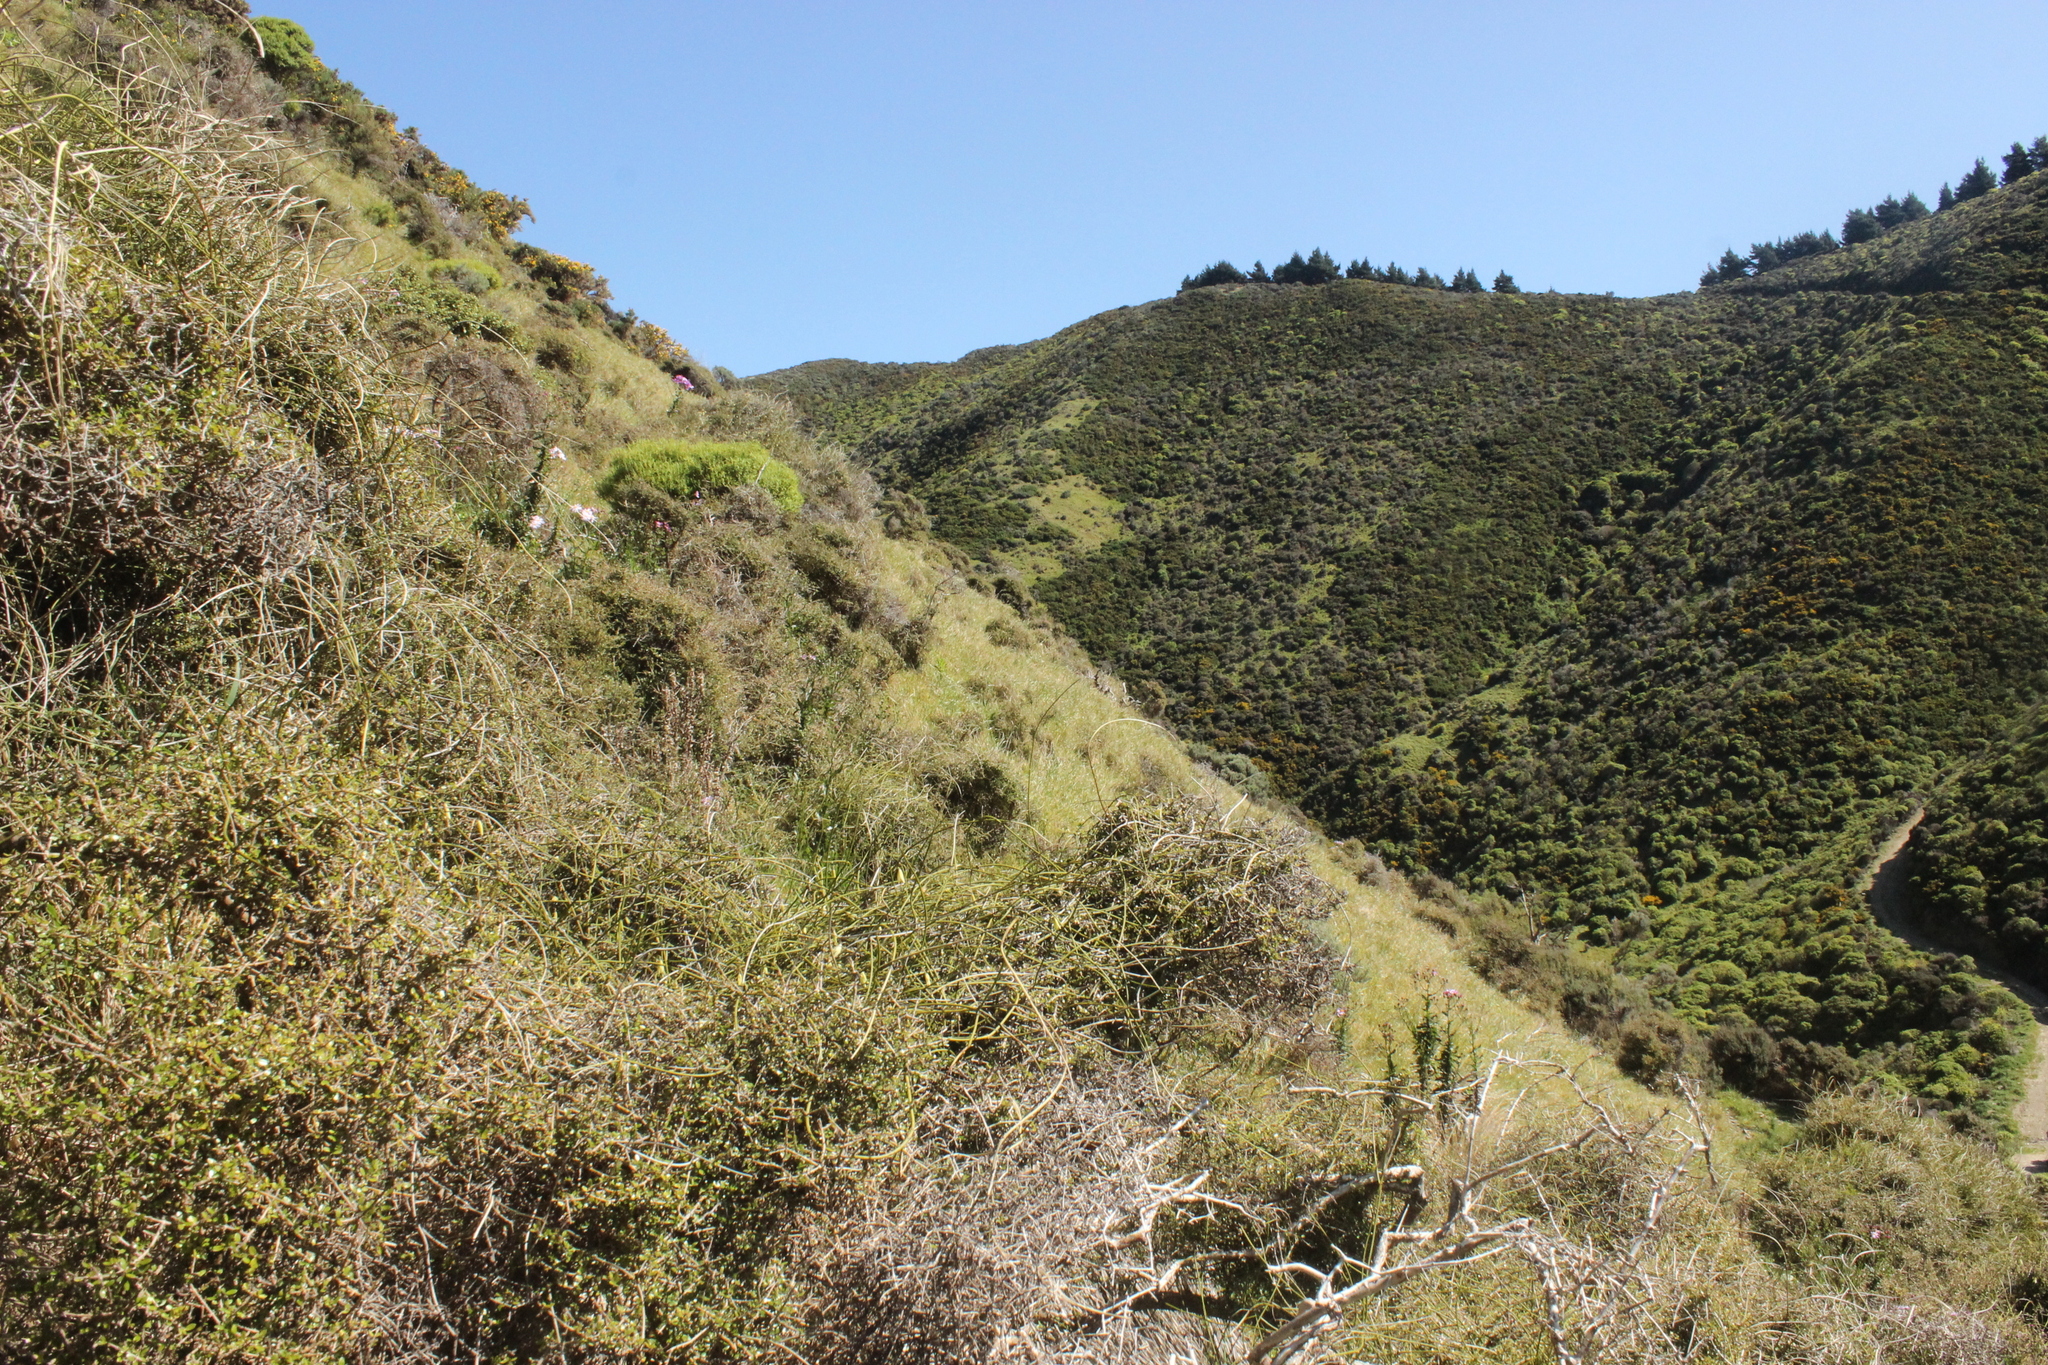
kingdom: Plantae
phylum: Tracheophyta
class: Magnoliopsida
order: Ranunculales
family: Ranunculaceae
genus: Clematis
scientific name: Clematis afoliata
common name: Rush-stem clematis
